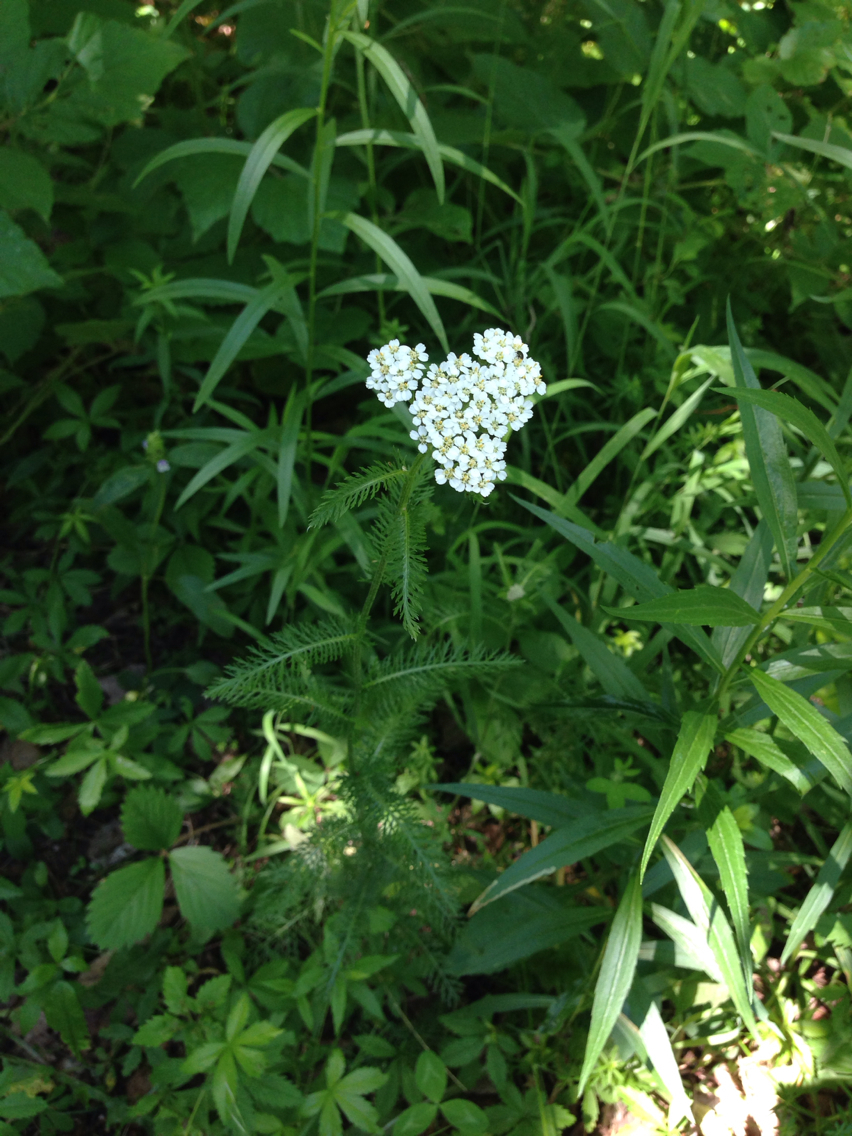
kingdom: Plantae
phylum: Tracheophyta
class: Magnoliopsida
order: Asterales
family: Asteraceae
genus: Achillea
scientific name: Achillea millefolium
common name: Yarrow
